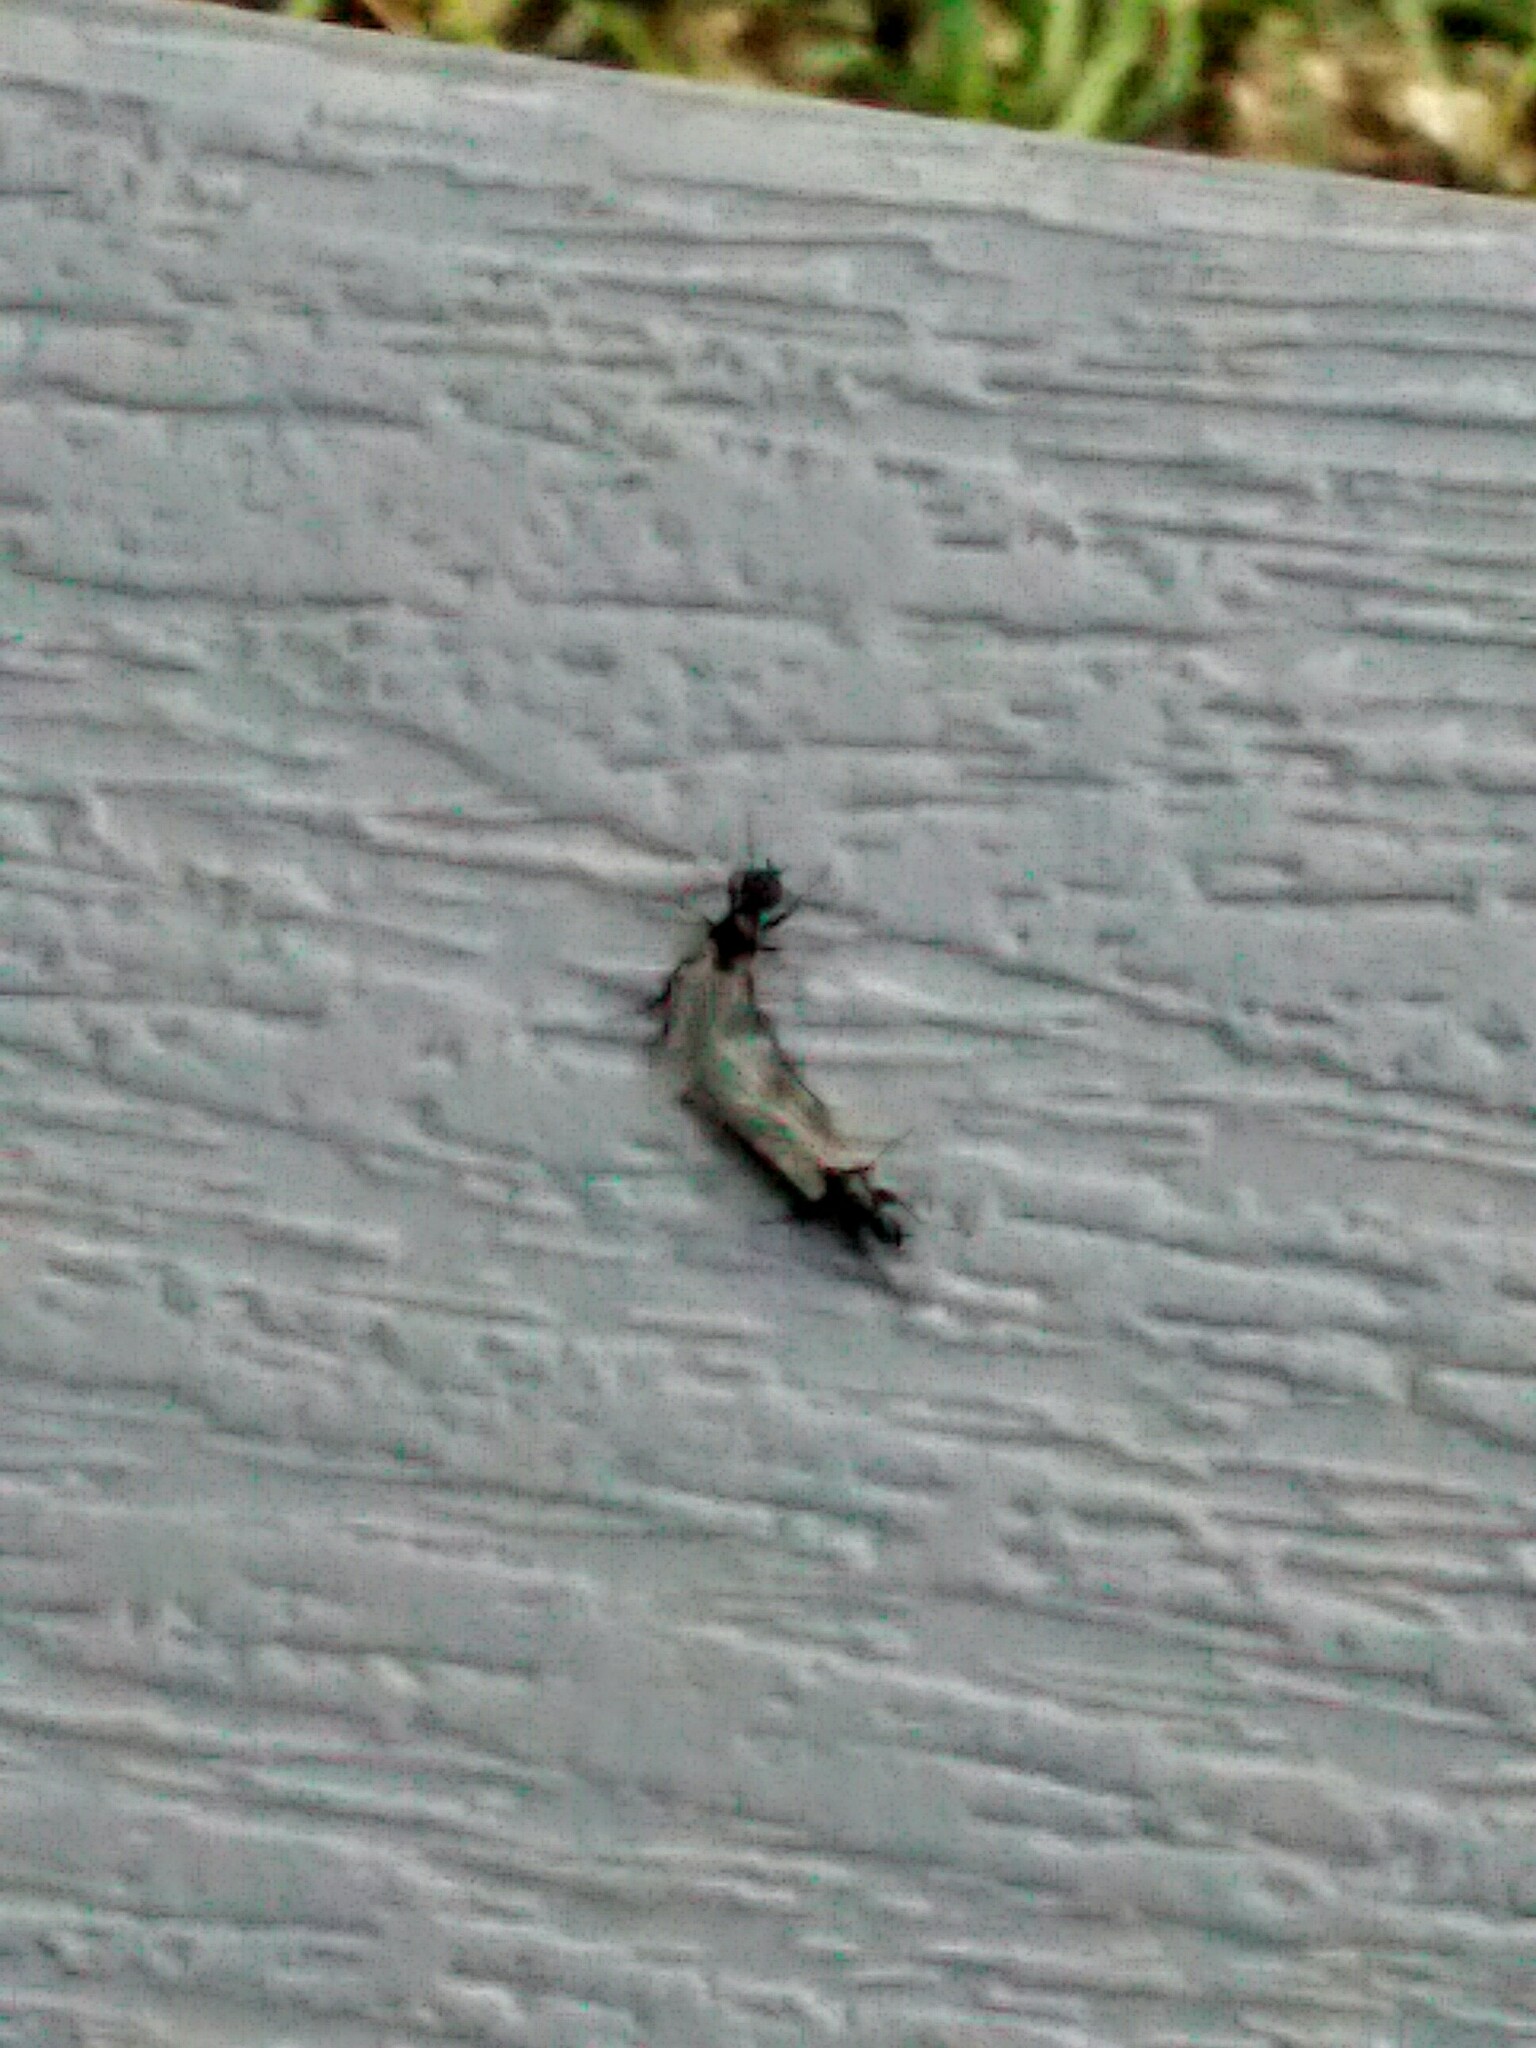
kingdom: Animalia
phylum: Arthropoda
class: Insecta
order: Diptera
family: Bibionidae
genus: Bibiodes
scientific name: Bibiodes halteralis
